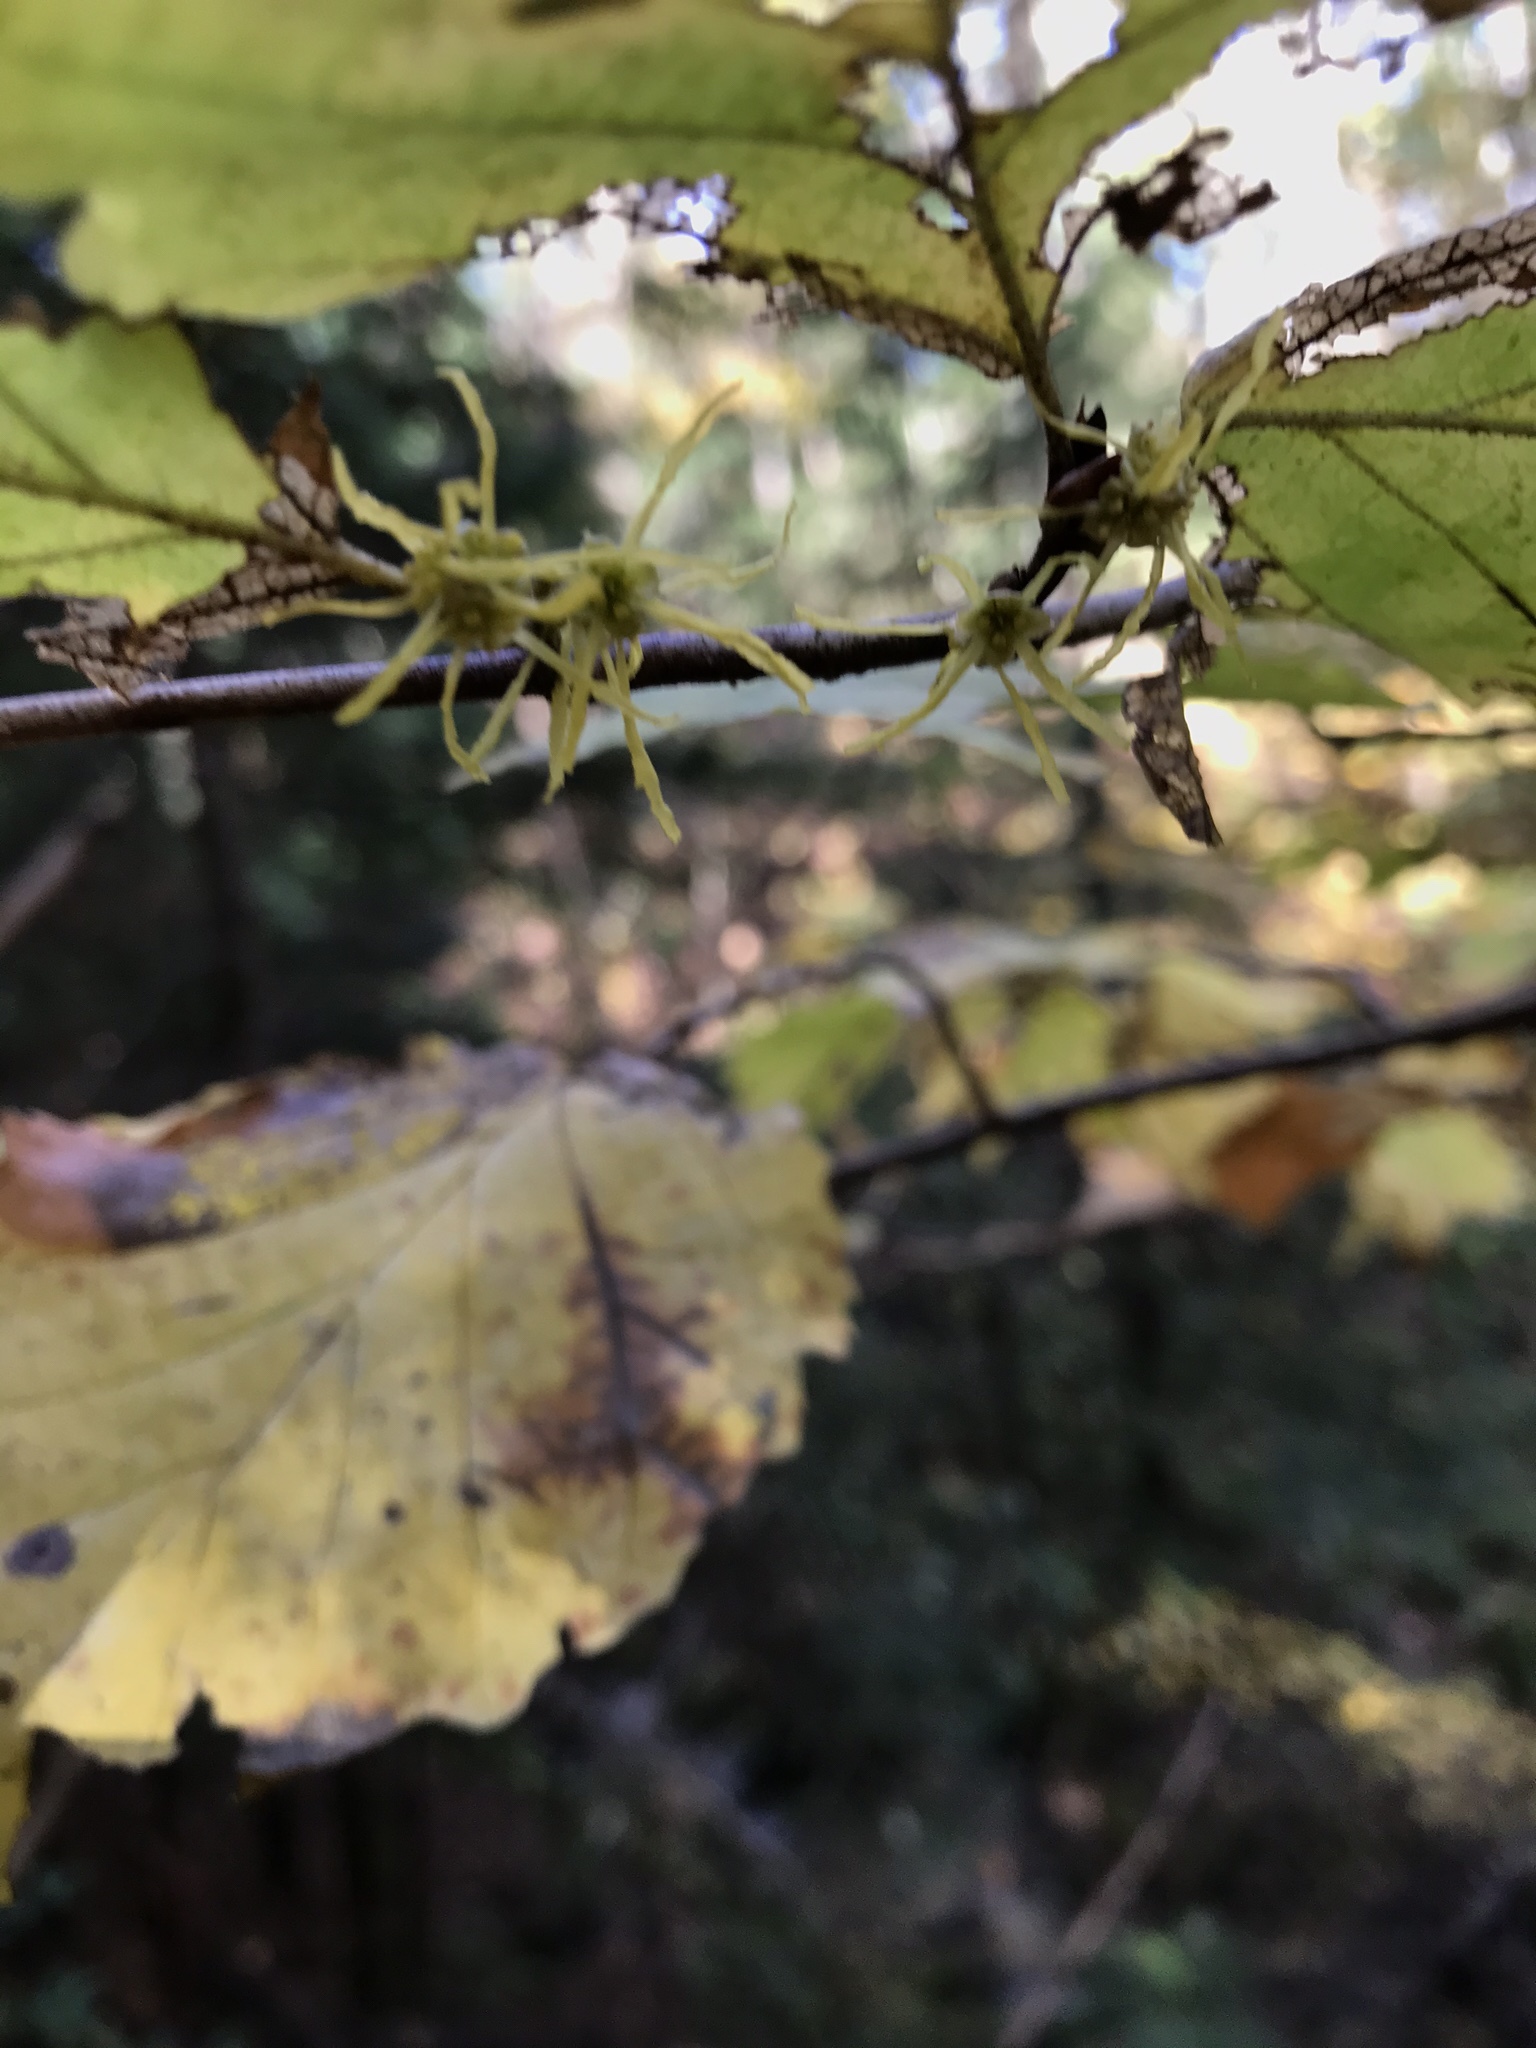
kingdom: Plantae
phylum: Tracheophyta
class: Magnoliopsida
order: Saxifragales
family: Hamamelidaceae
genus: Hamamelis
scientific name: Hamamelis virginiana
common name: Witch-hazel
